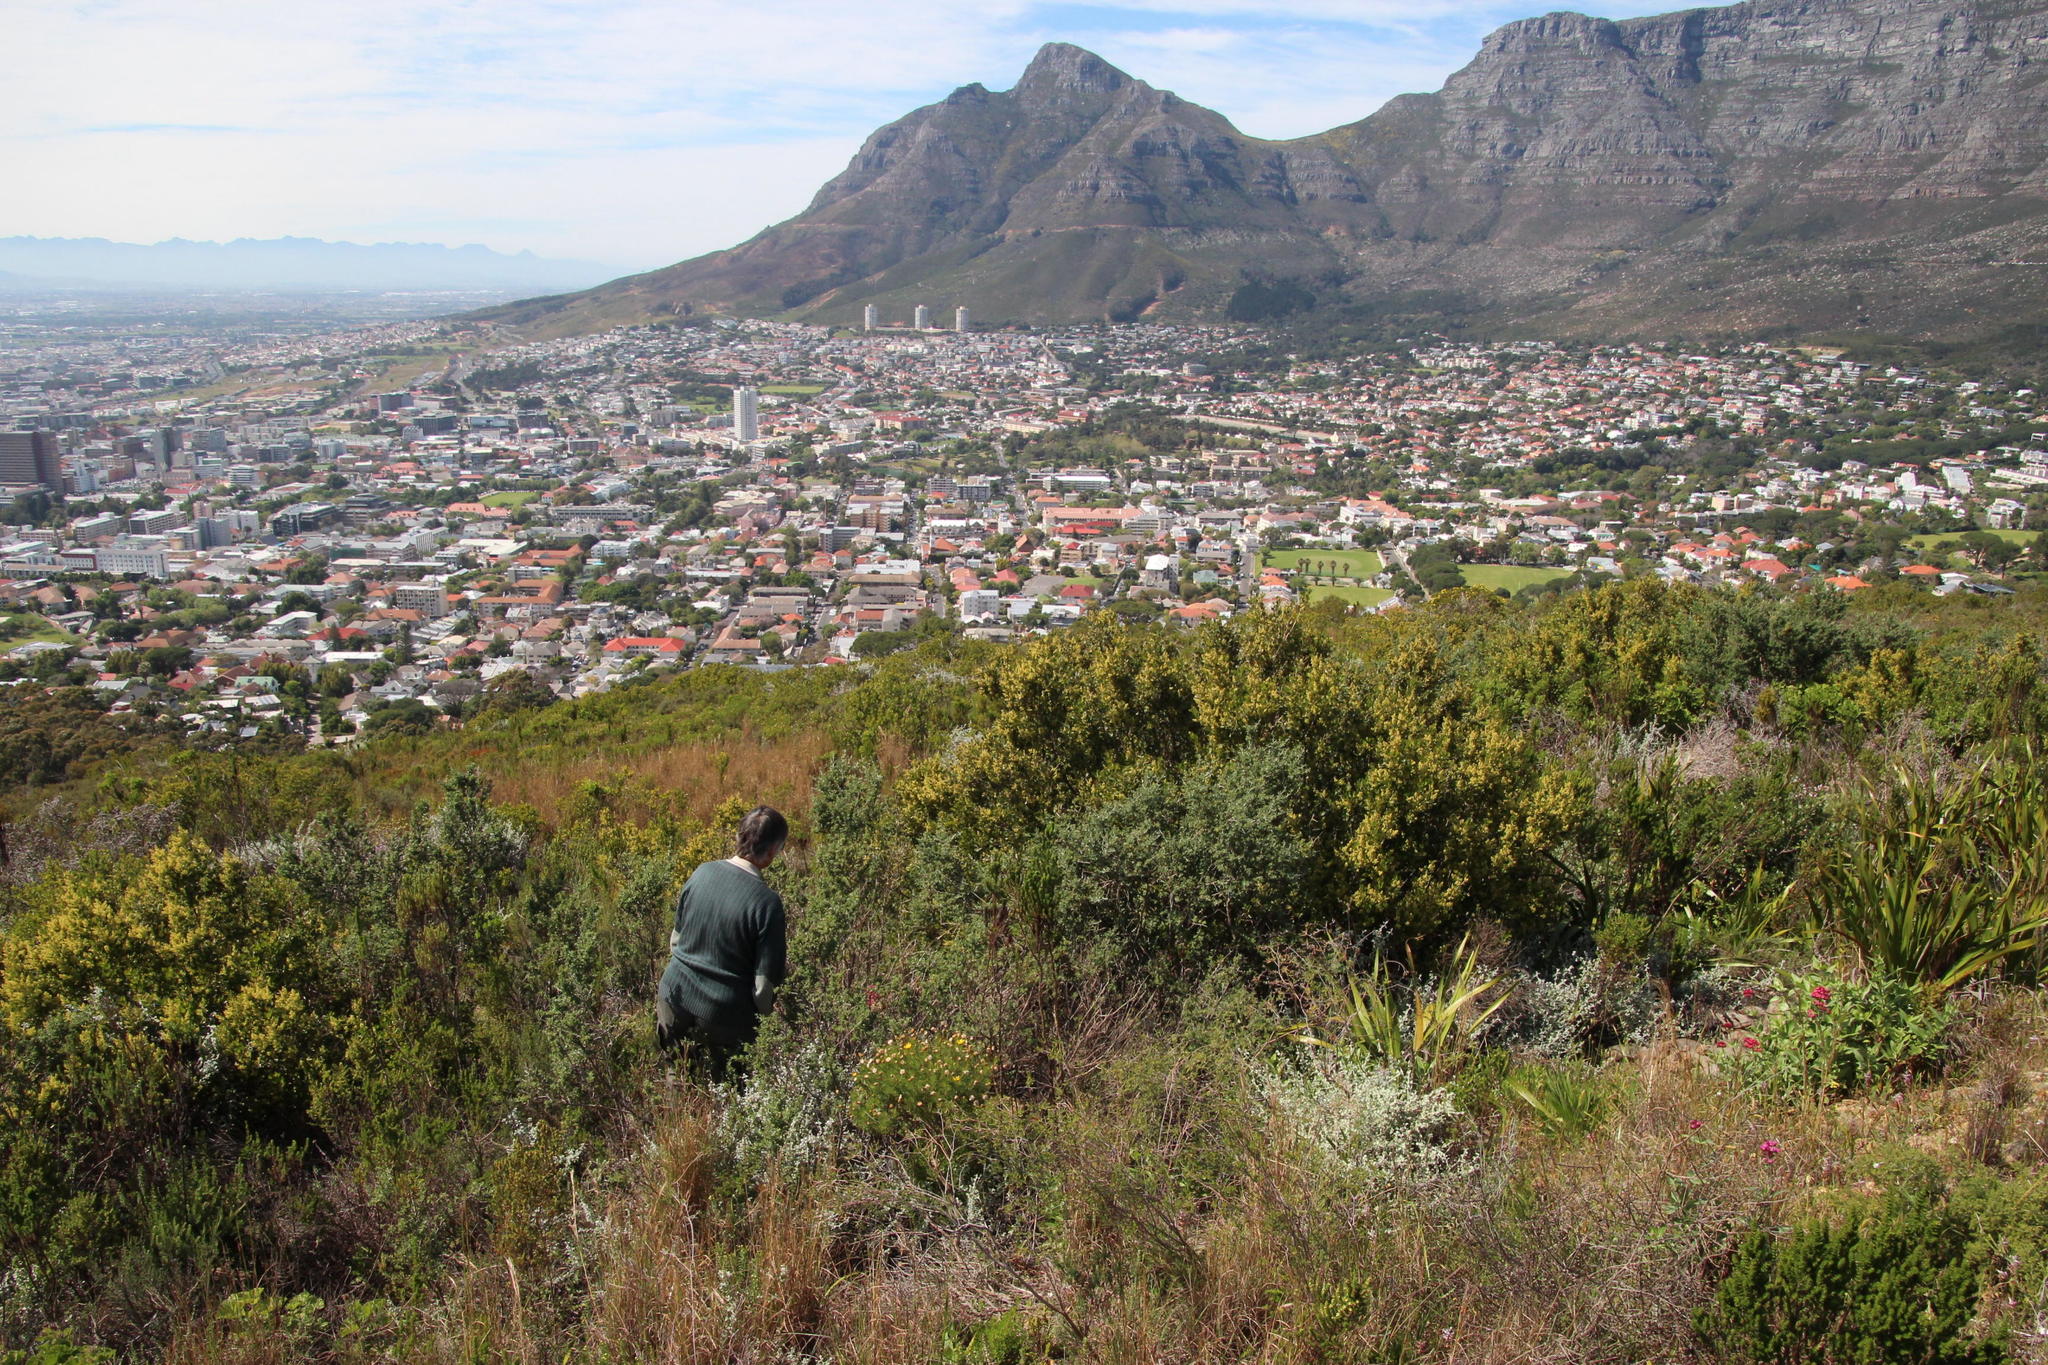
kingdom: Plantae
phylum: Tracheophyta
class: Magnoliopsida
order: Dipsacales
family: Caprifoliaceae
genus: Centranthus
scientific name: Centranthus ruber
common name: Red valerian
